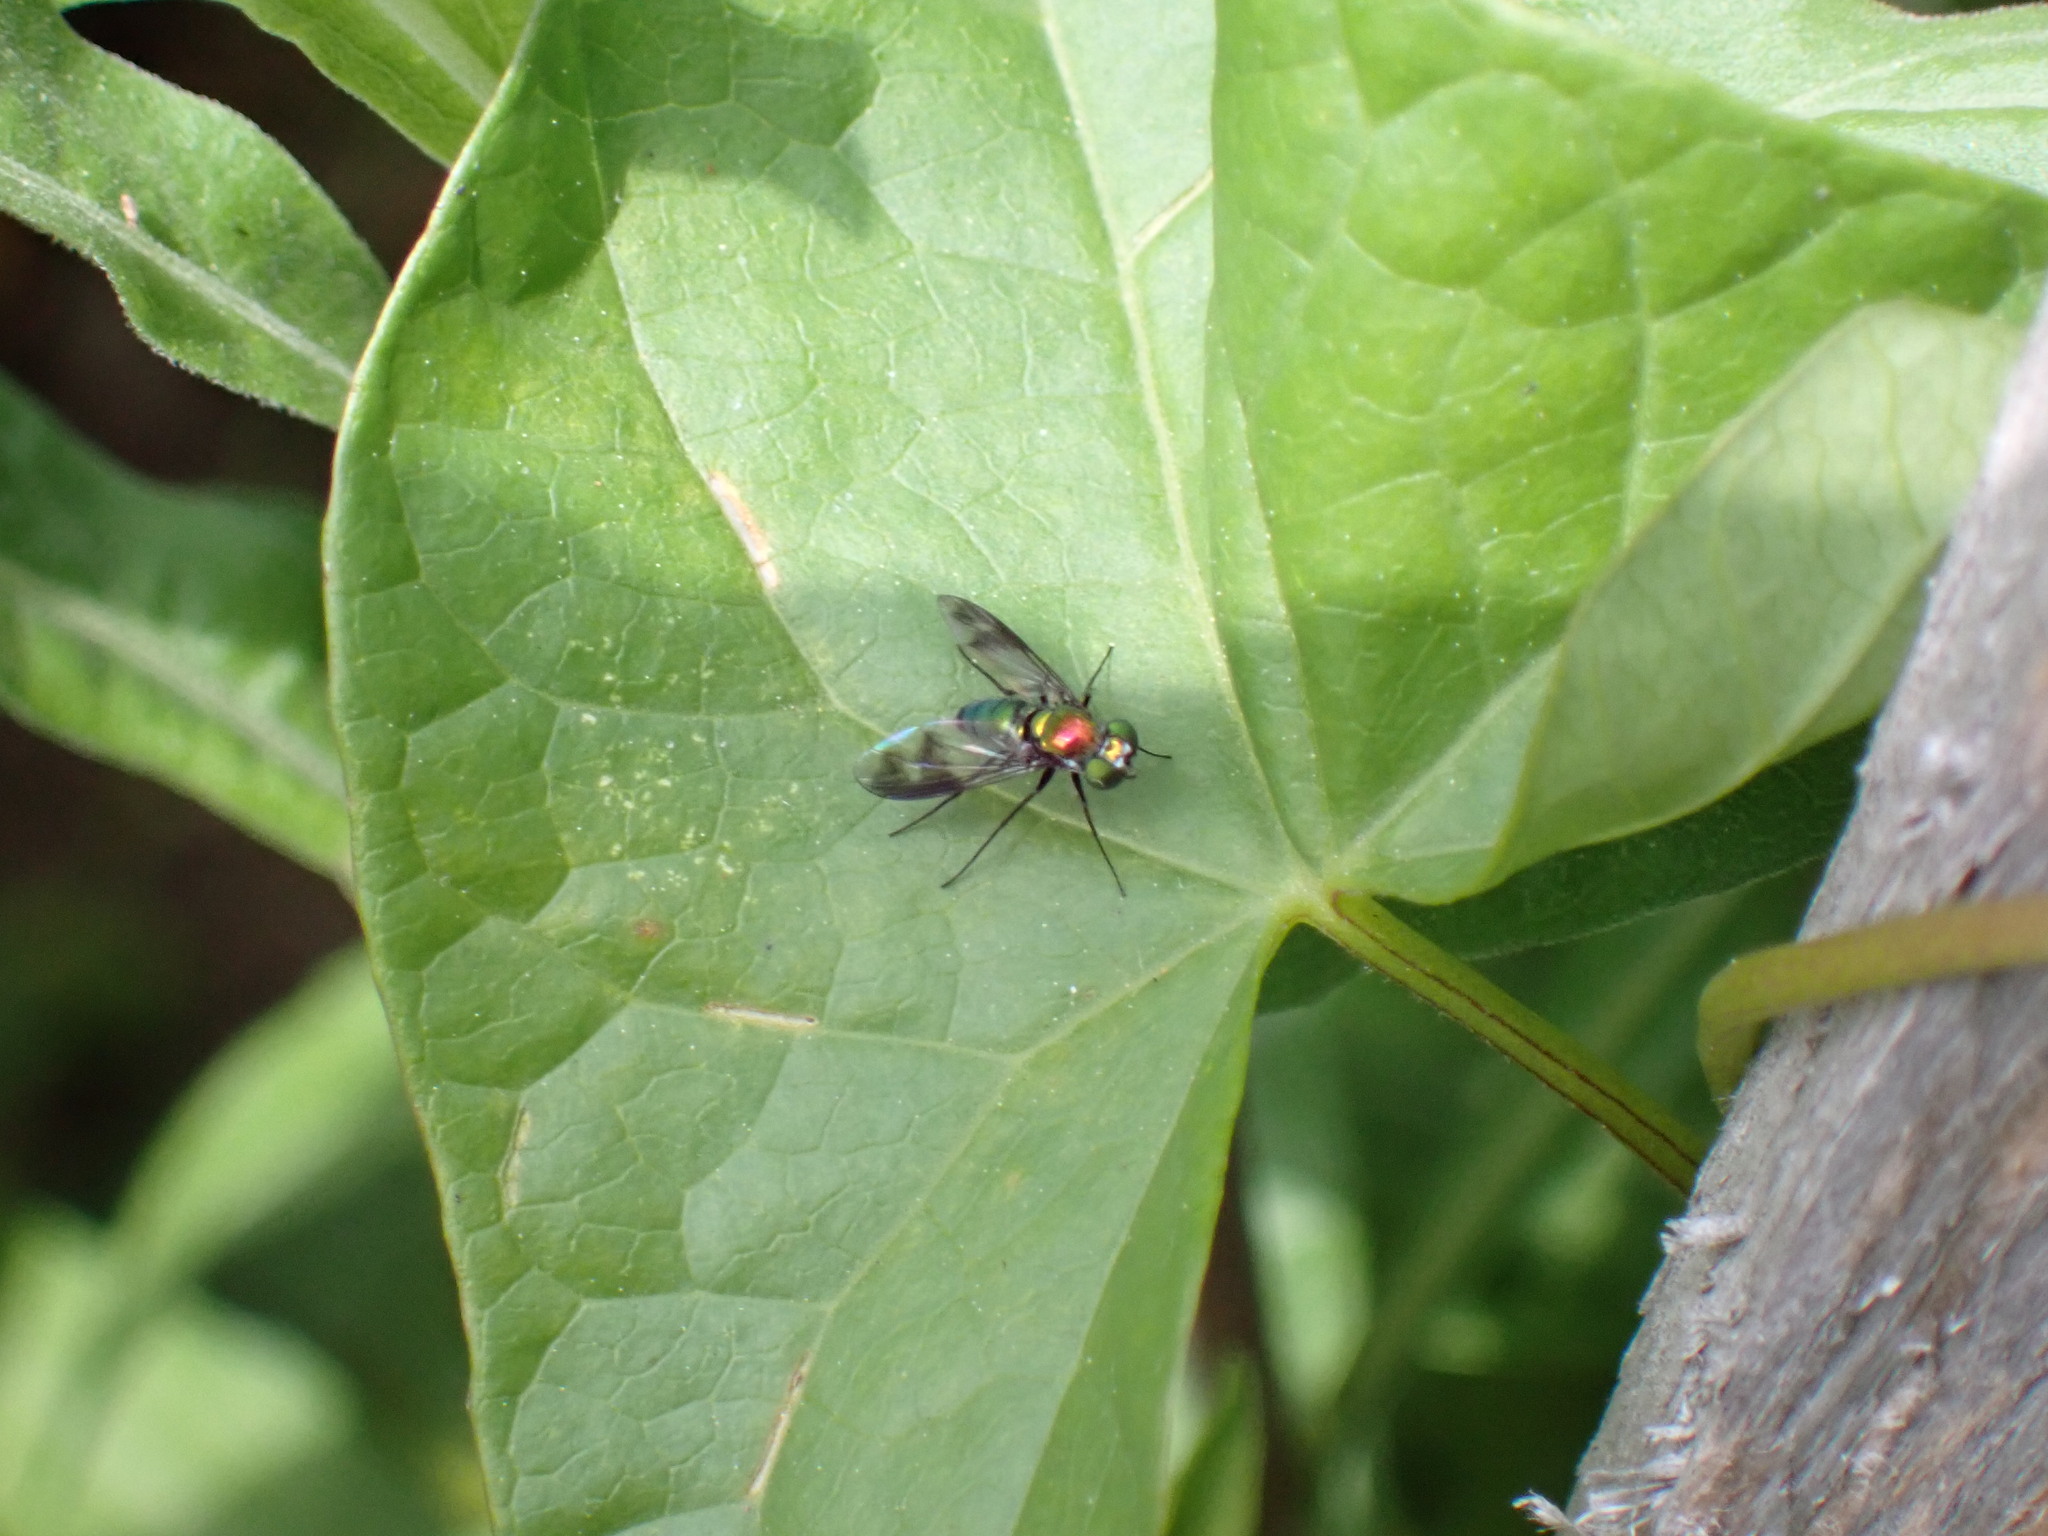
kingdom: Animalia
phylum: Arthropoda
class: Insecta
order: Diptera
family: Dolichopodidae
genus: Condylostylus
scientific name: Condylostylus patibulatus
